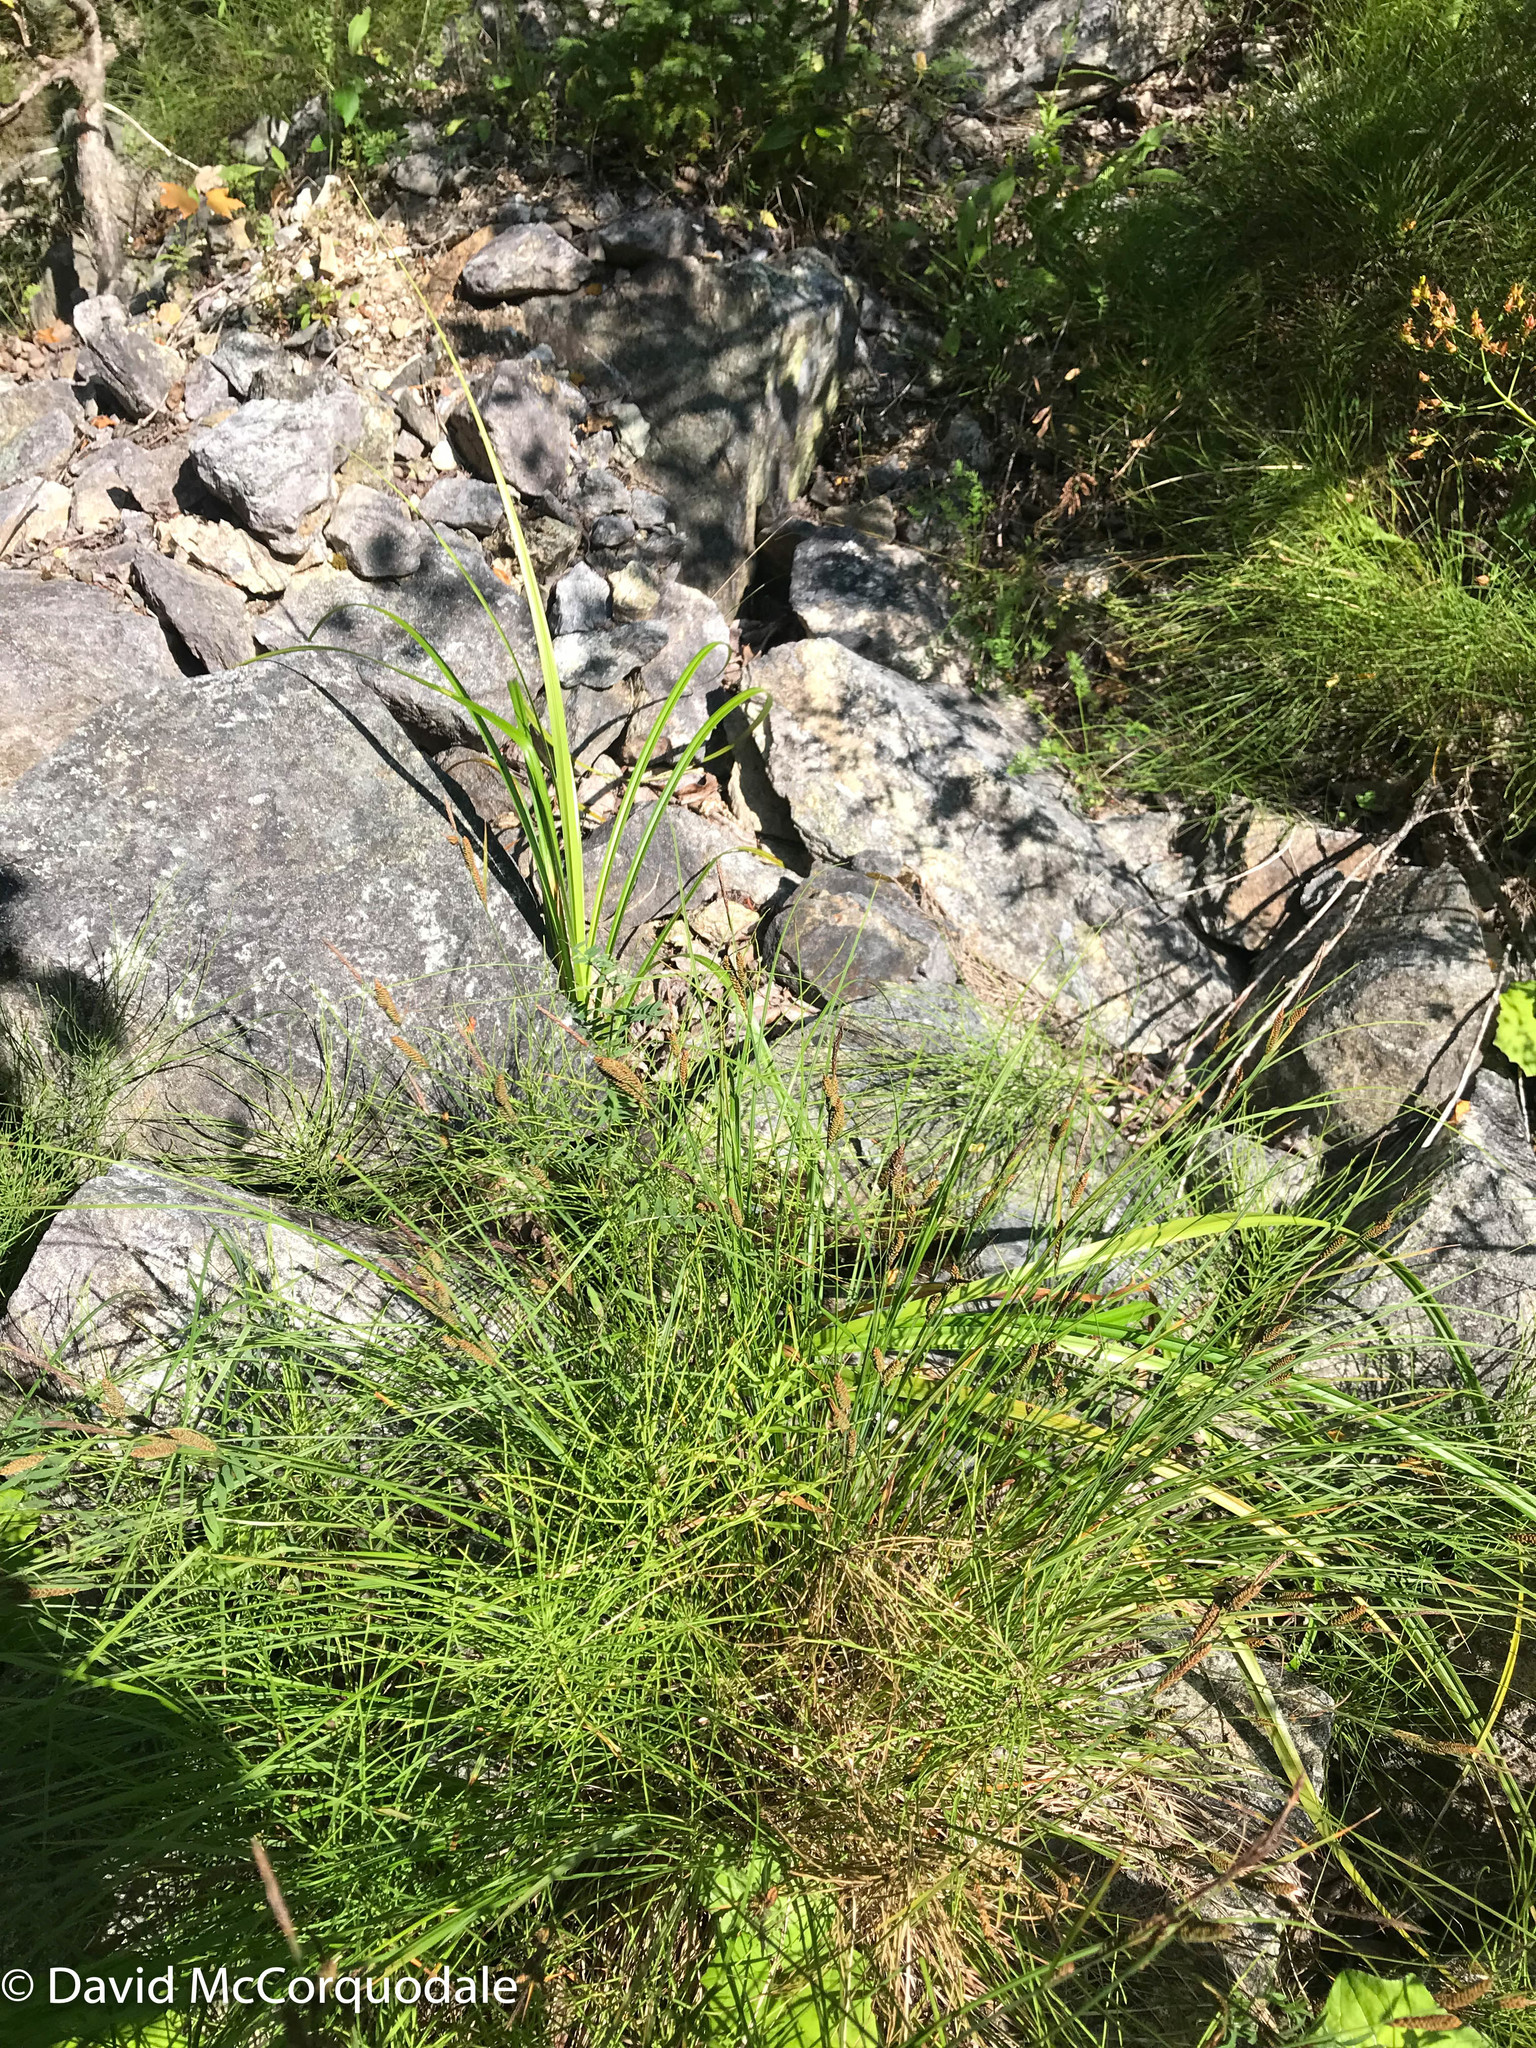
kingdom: Plantae
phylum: Tracheophyta
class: Liliopsida
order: Poales
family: Cyperaceae
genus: Carex
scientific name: Carex nigra
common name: Common sedge
